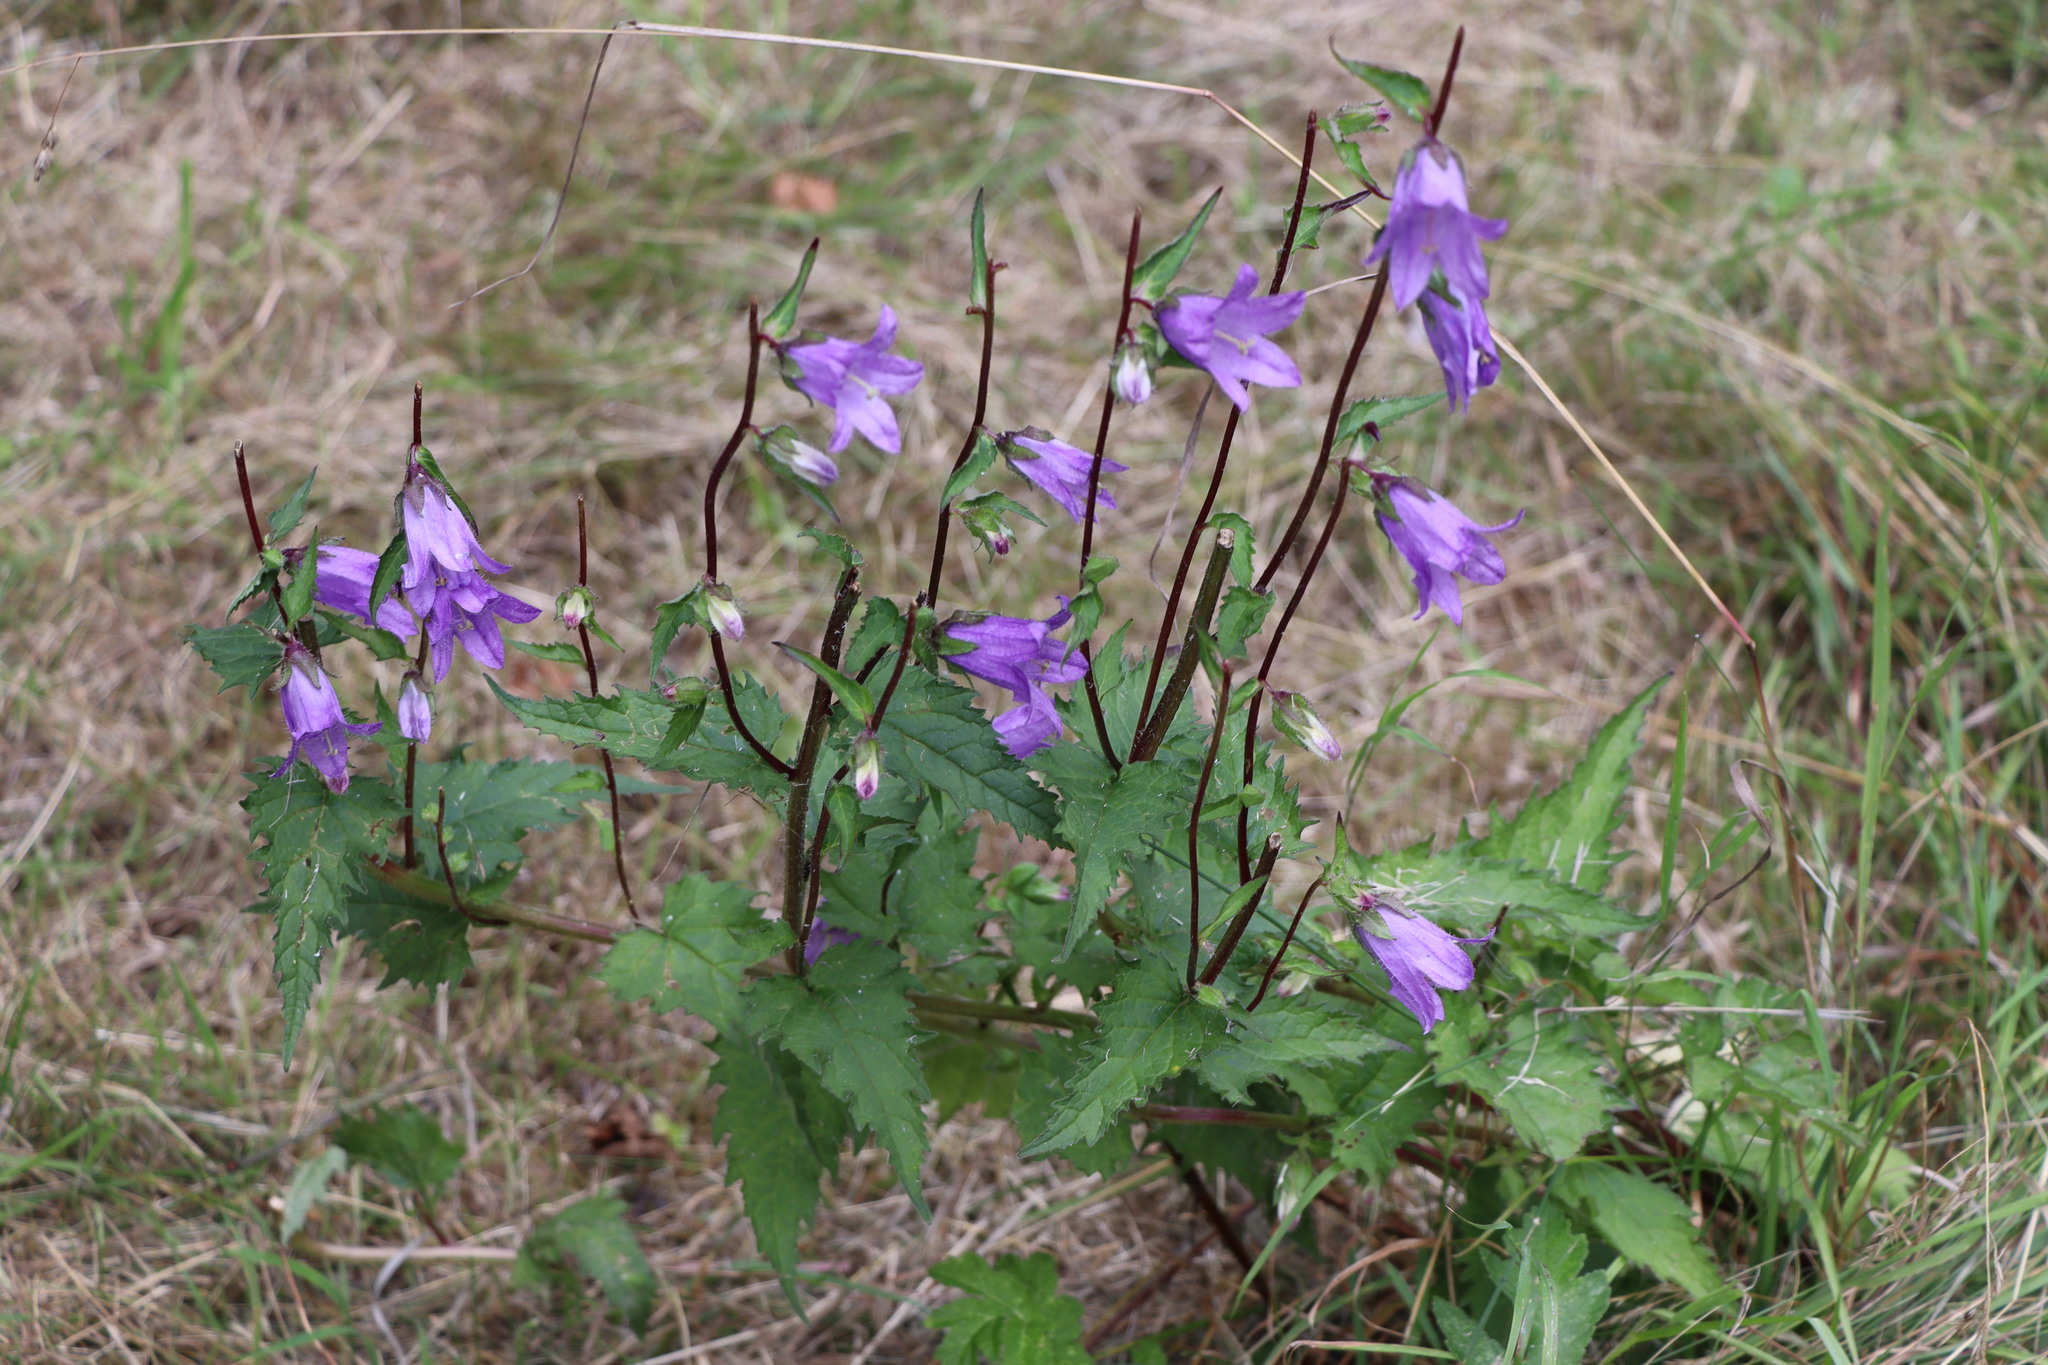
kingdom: Plantae
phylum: Tracheophyta
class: Magnoliopsida
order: Asterales
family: Campanulaceae
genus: Campanula
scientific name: Campanula trachelium
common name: Nettle-leaved bellflower
